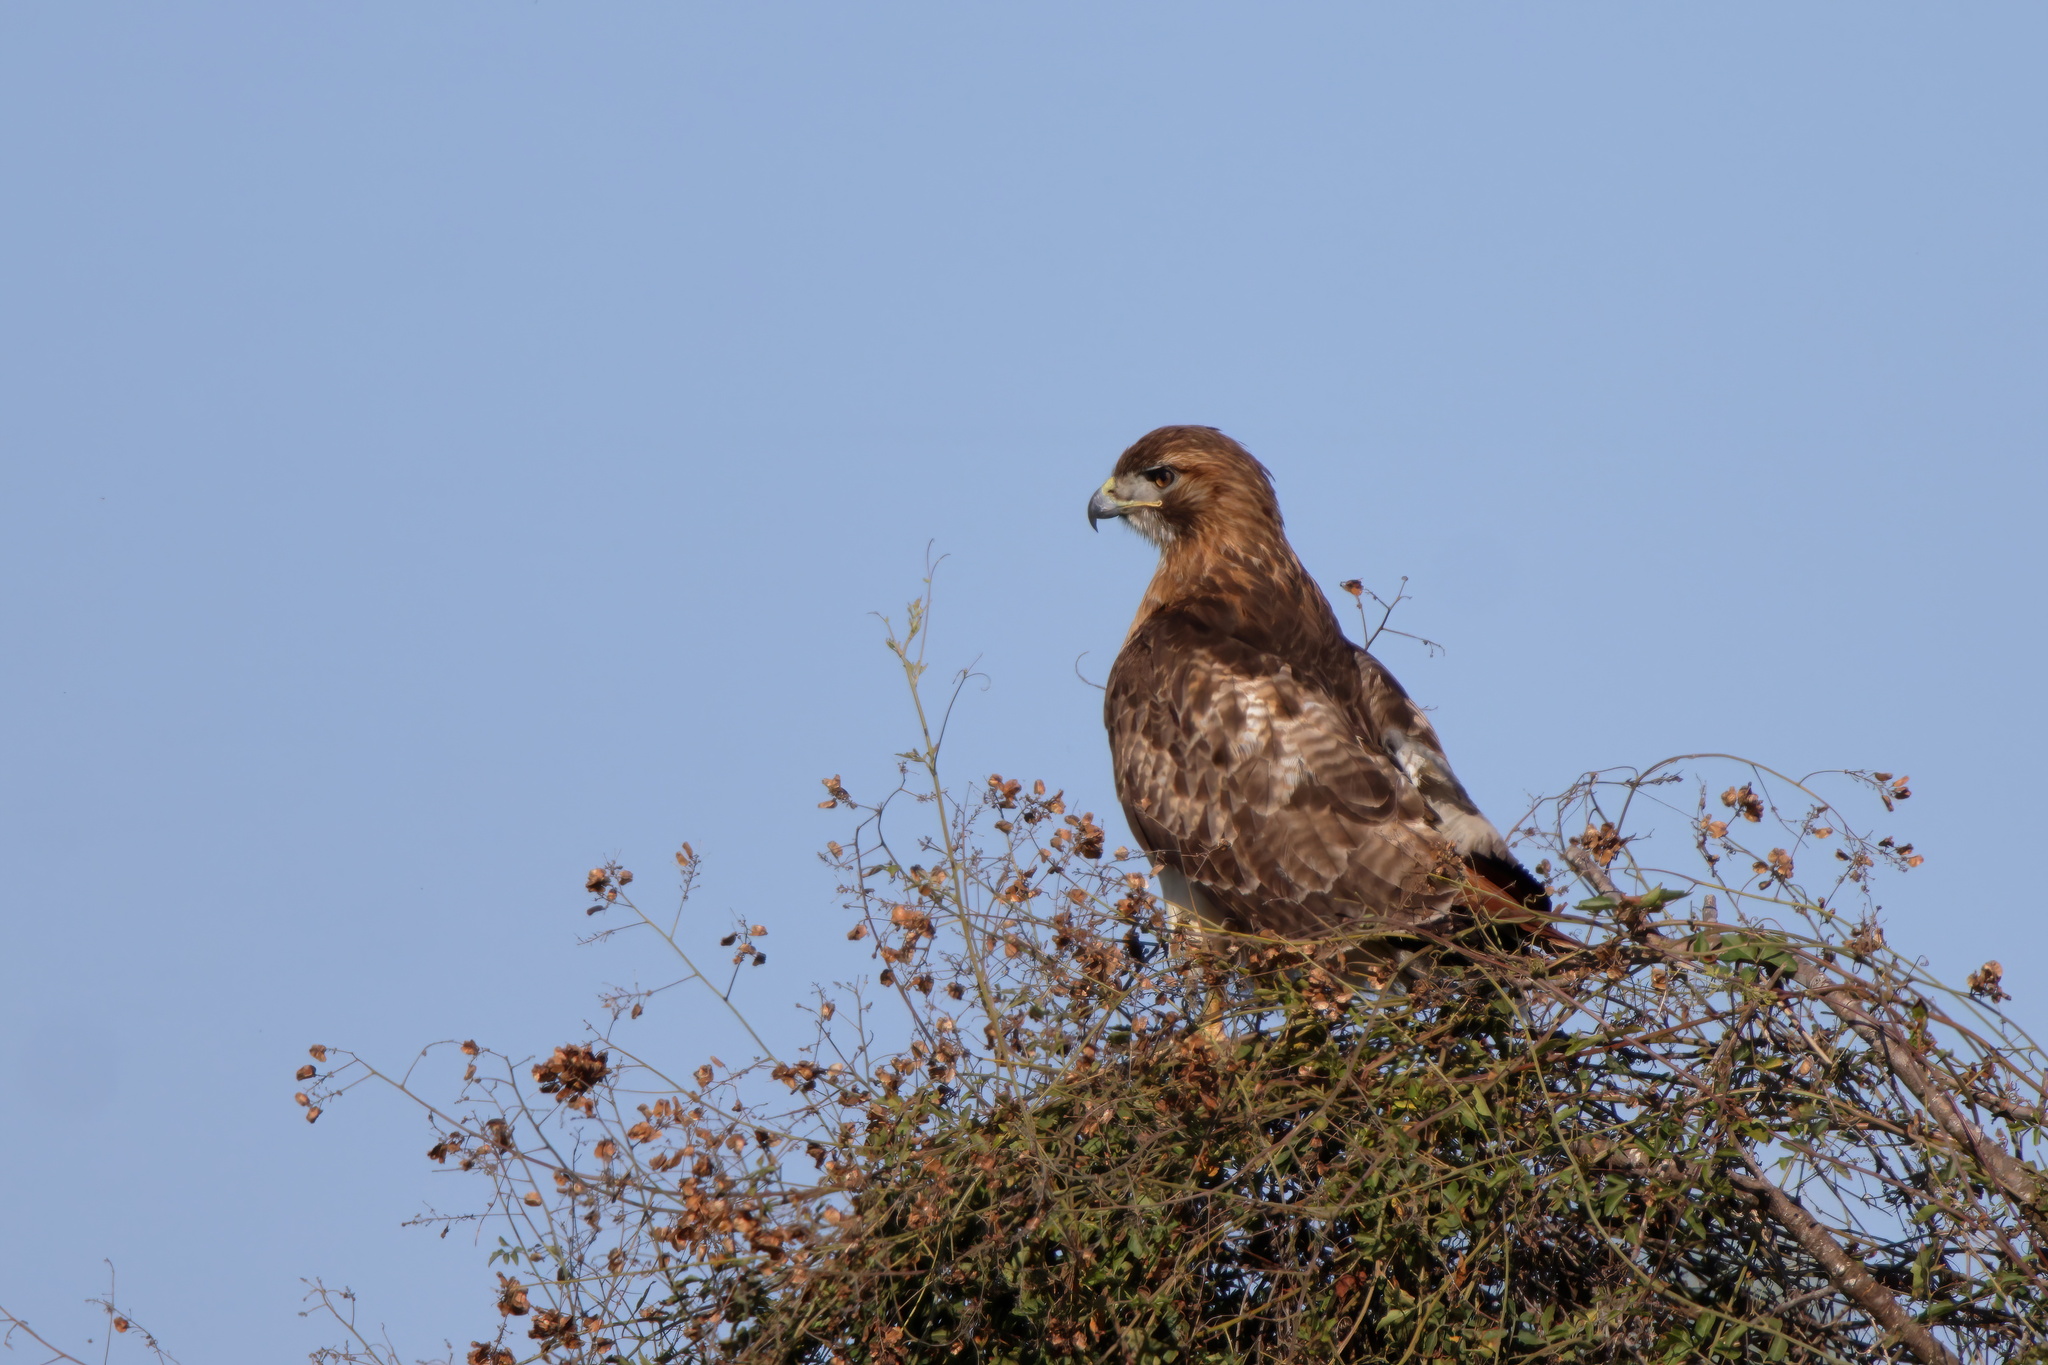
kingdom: Animalia
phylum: Chordata
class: Aves
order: Accipitriformes
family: Accipitridae
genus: Buteo
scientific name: Buteo jamaicensis
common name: Red-tailed hawk
